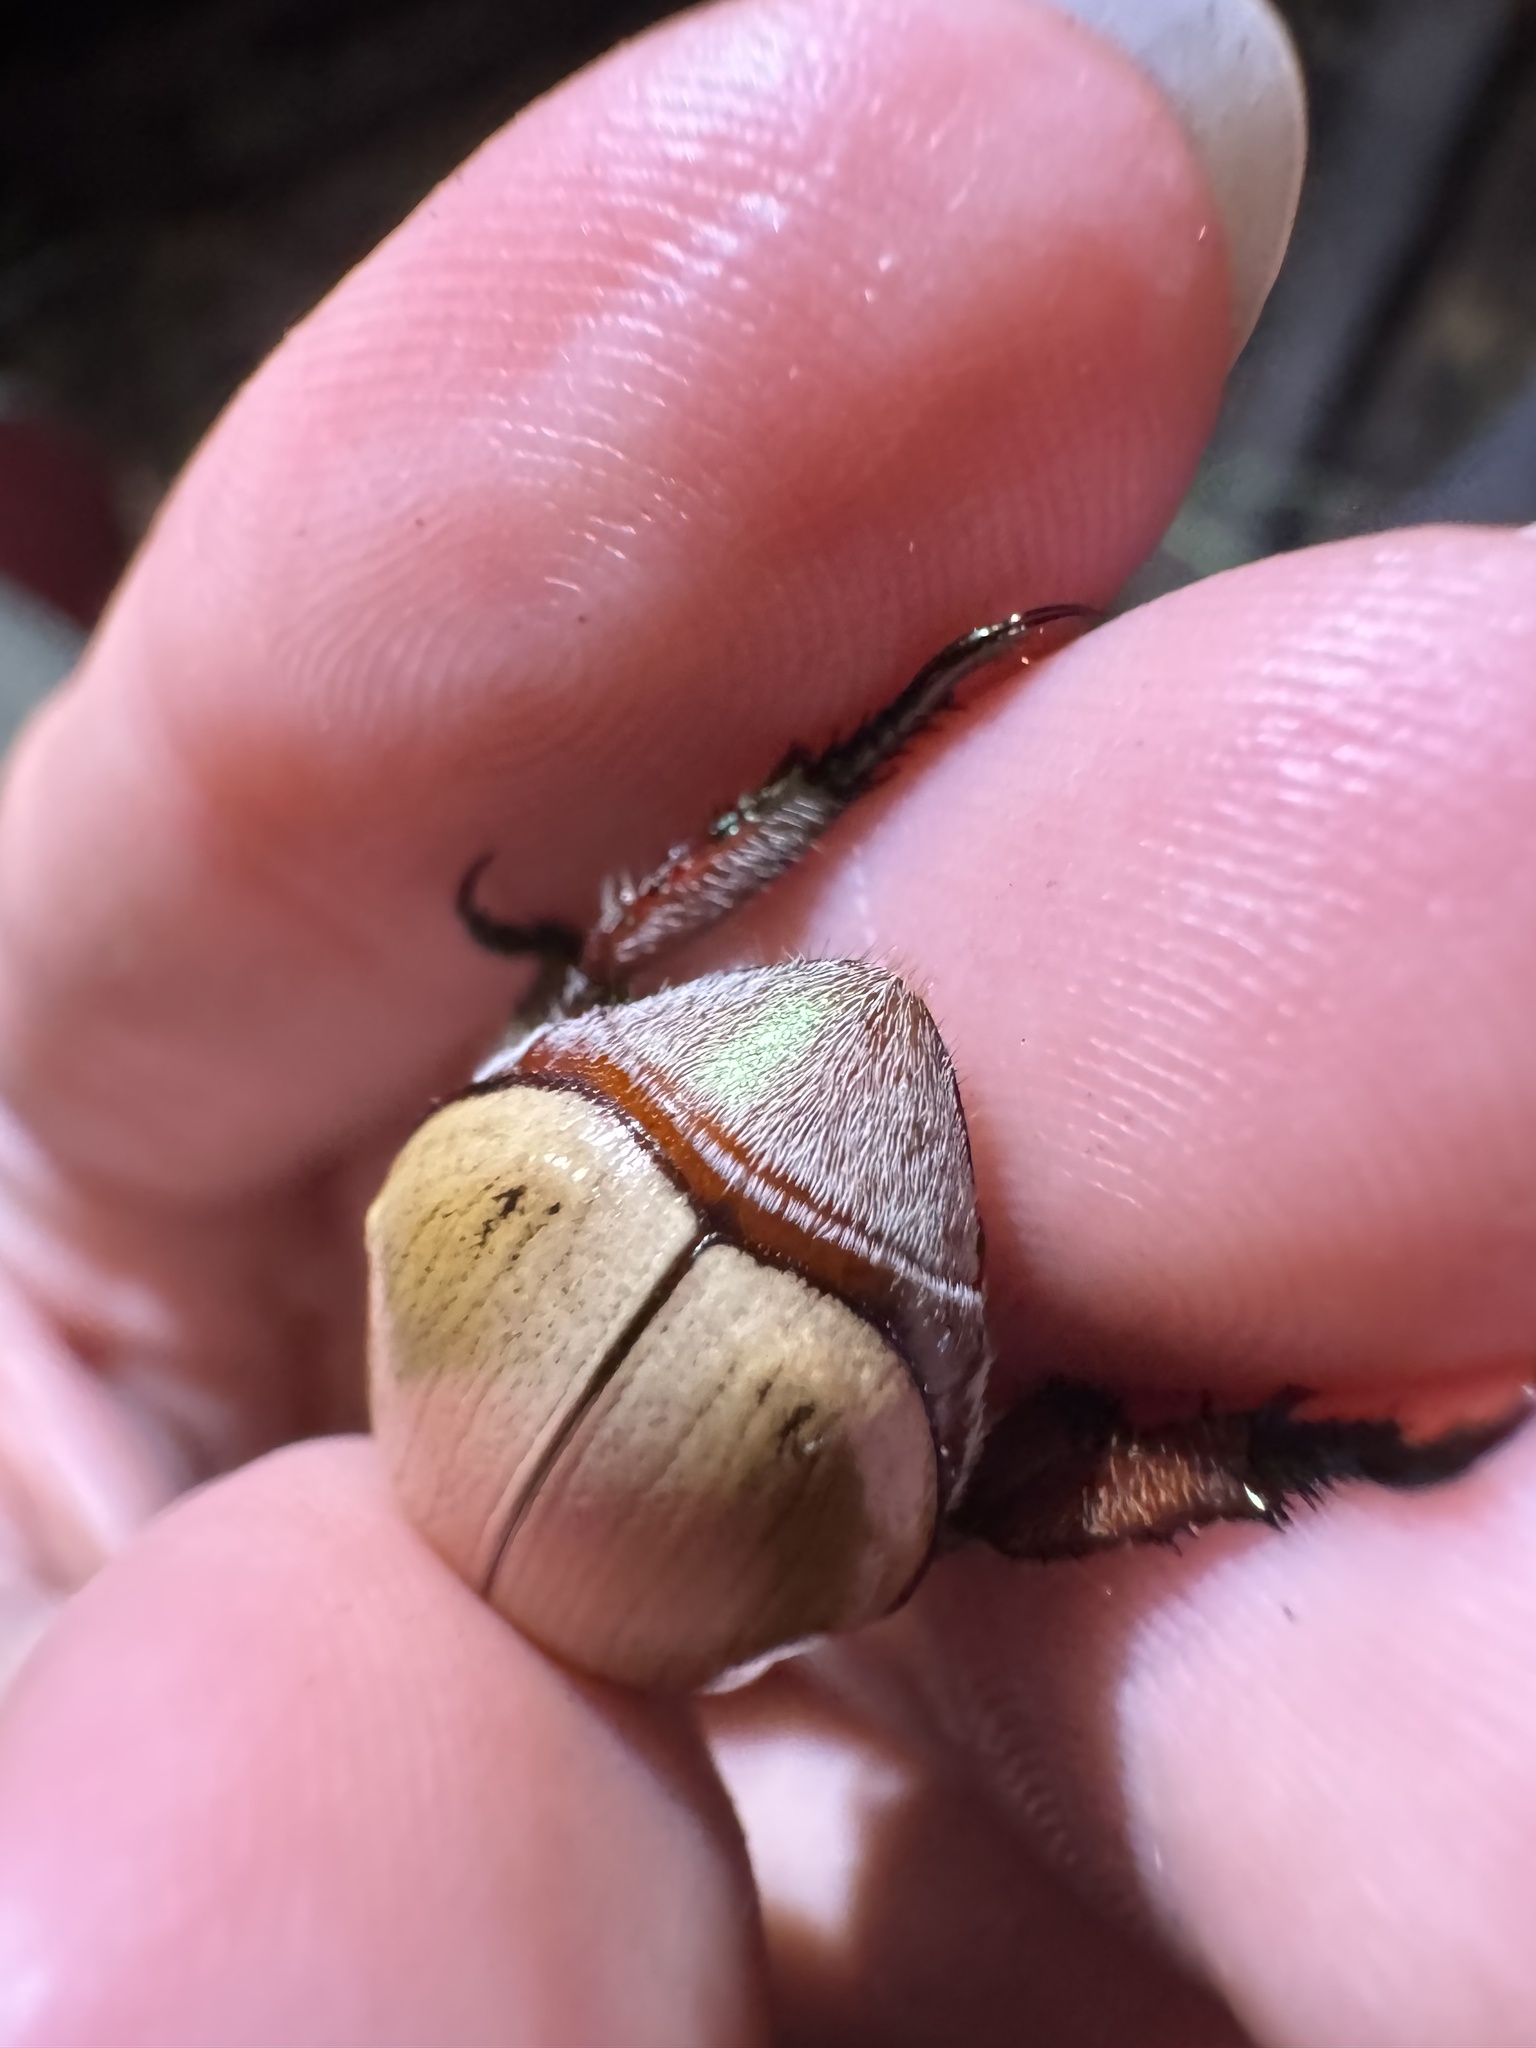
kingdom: Animalia
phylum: Arthropoda
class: Insecta
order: Coleoptera
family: Scarabaeidae
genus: Anoplognathus
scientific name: Anoplognathus flavipennis
